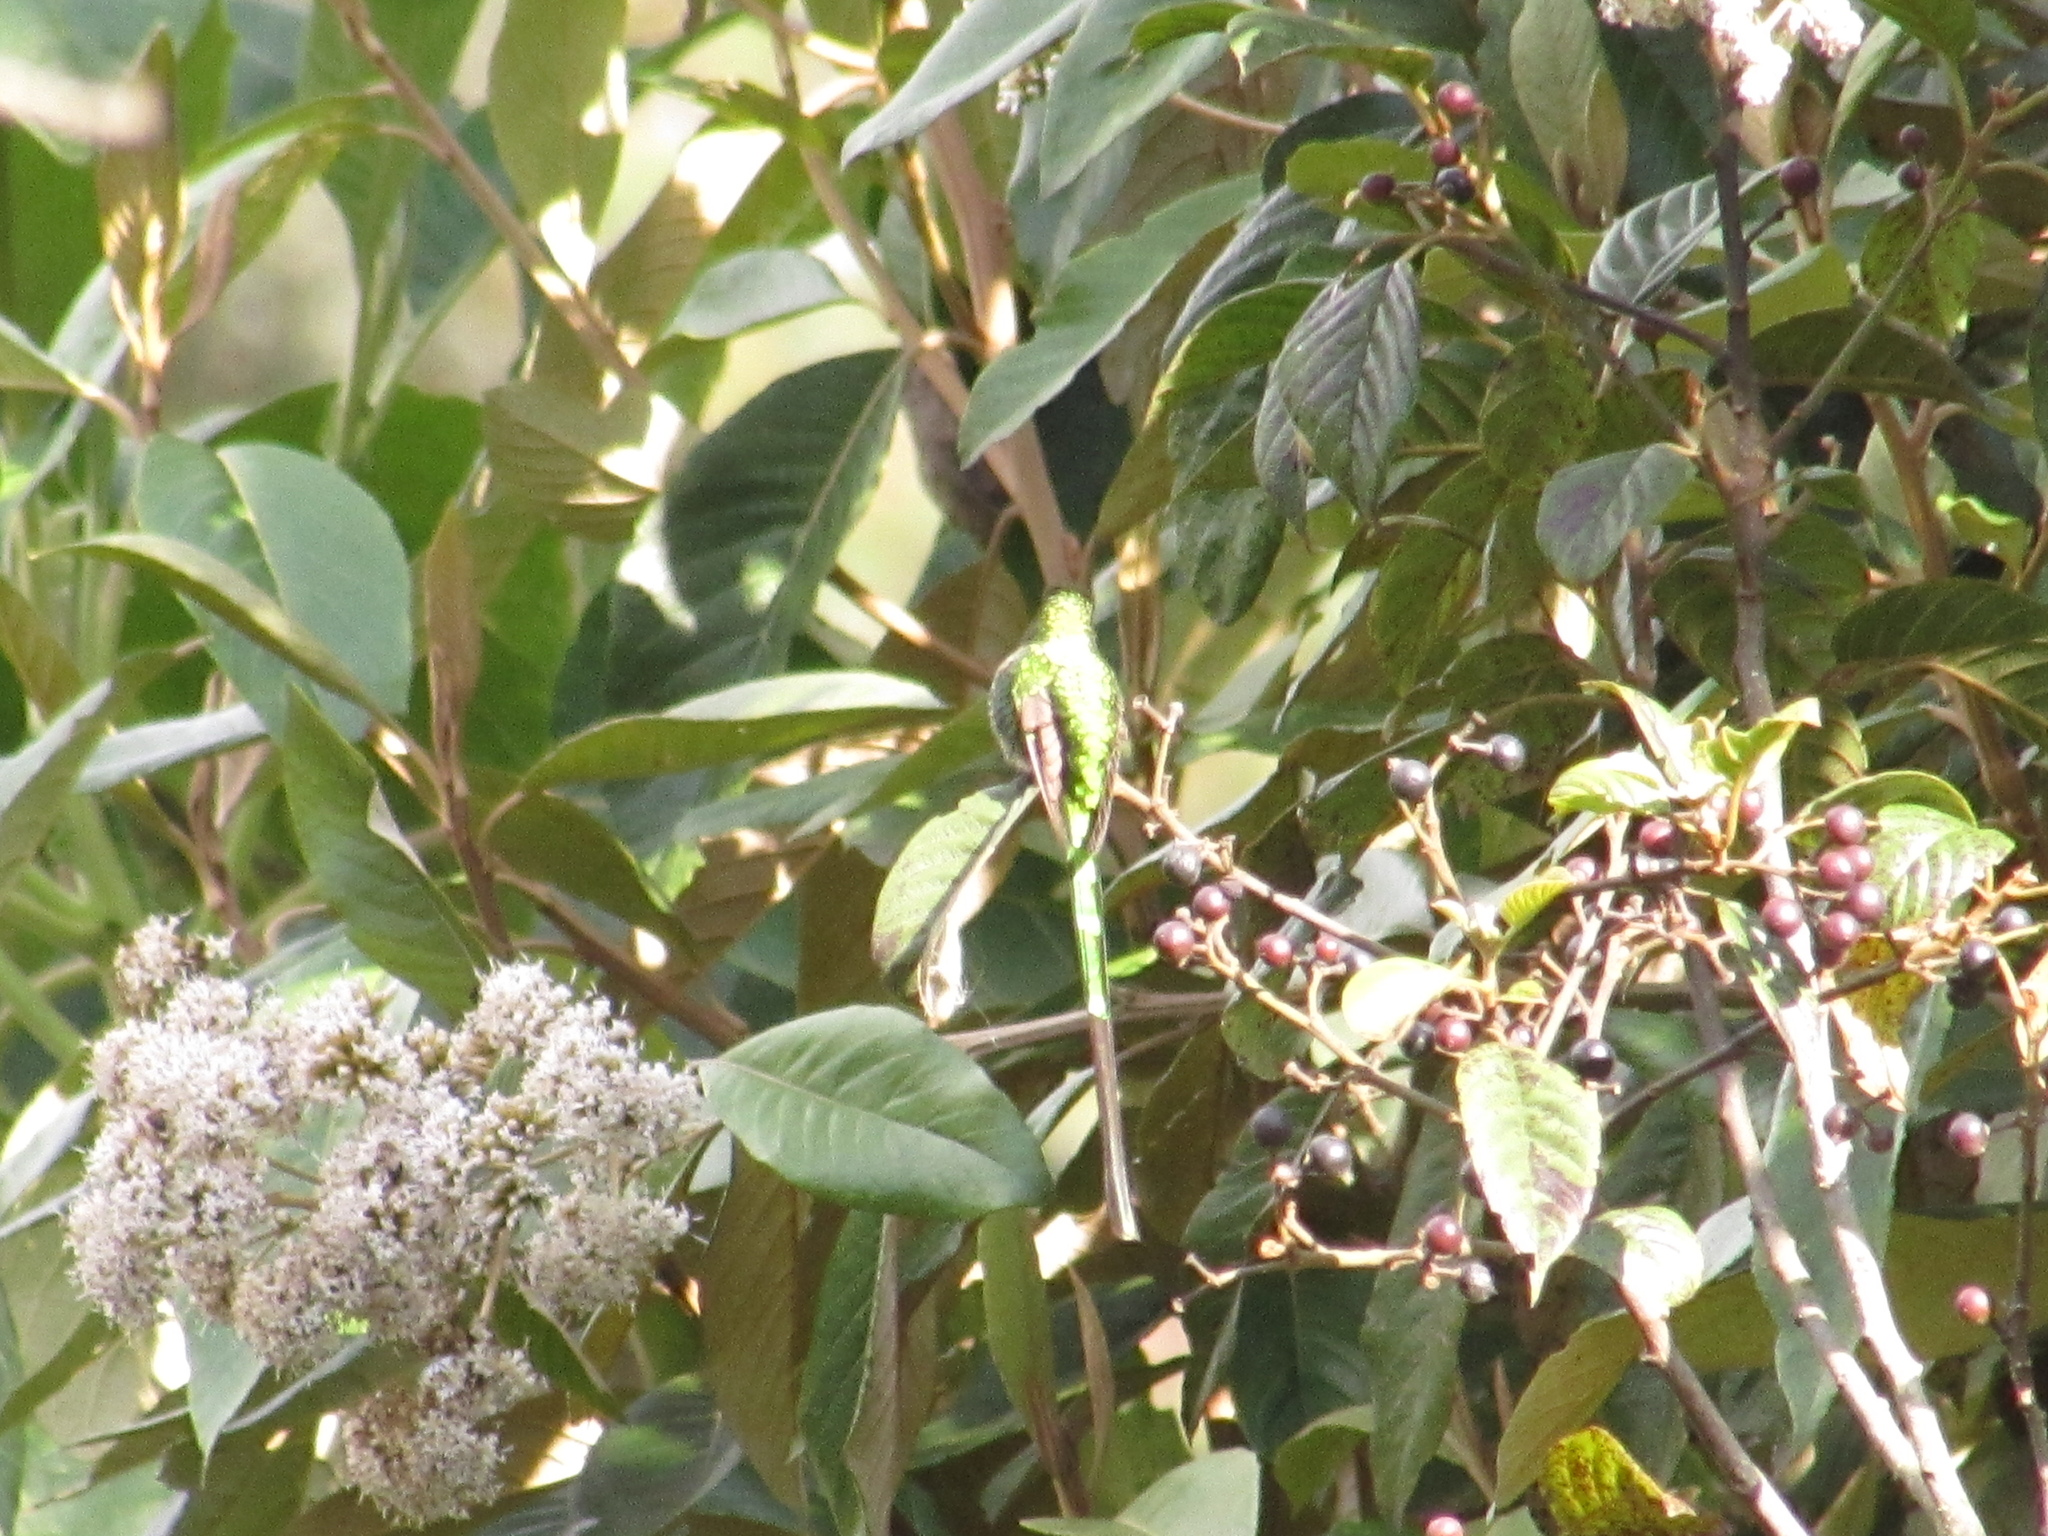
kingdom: Animalia
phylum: Chordata
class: Aves
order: Apodiformes
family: Trochilidae
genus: Lesbia
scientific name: Lesbia nuna
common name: Green-tailed trainbearer
